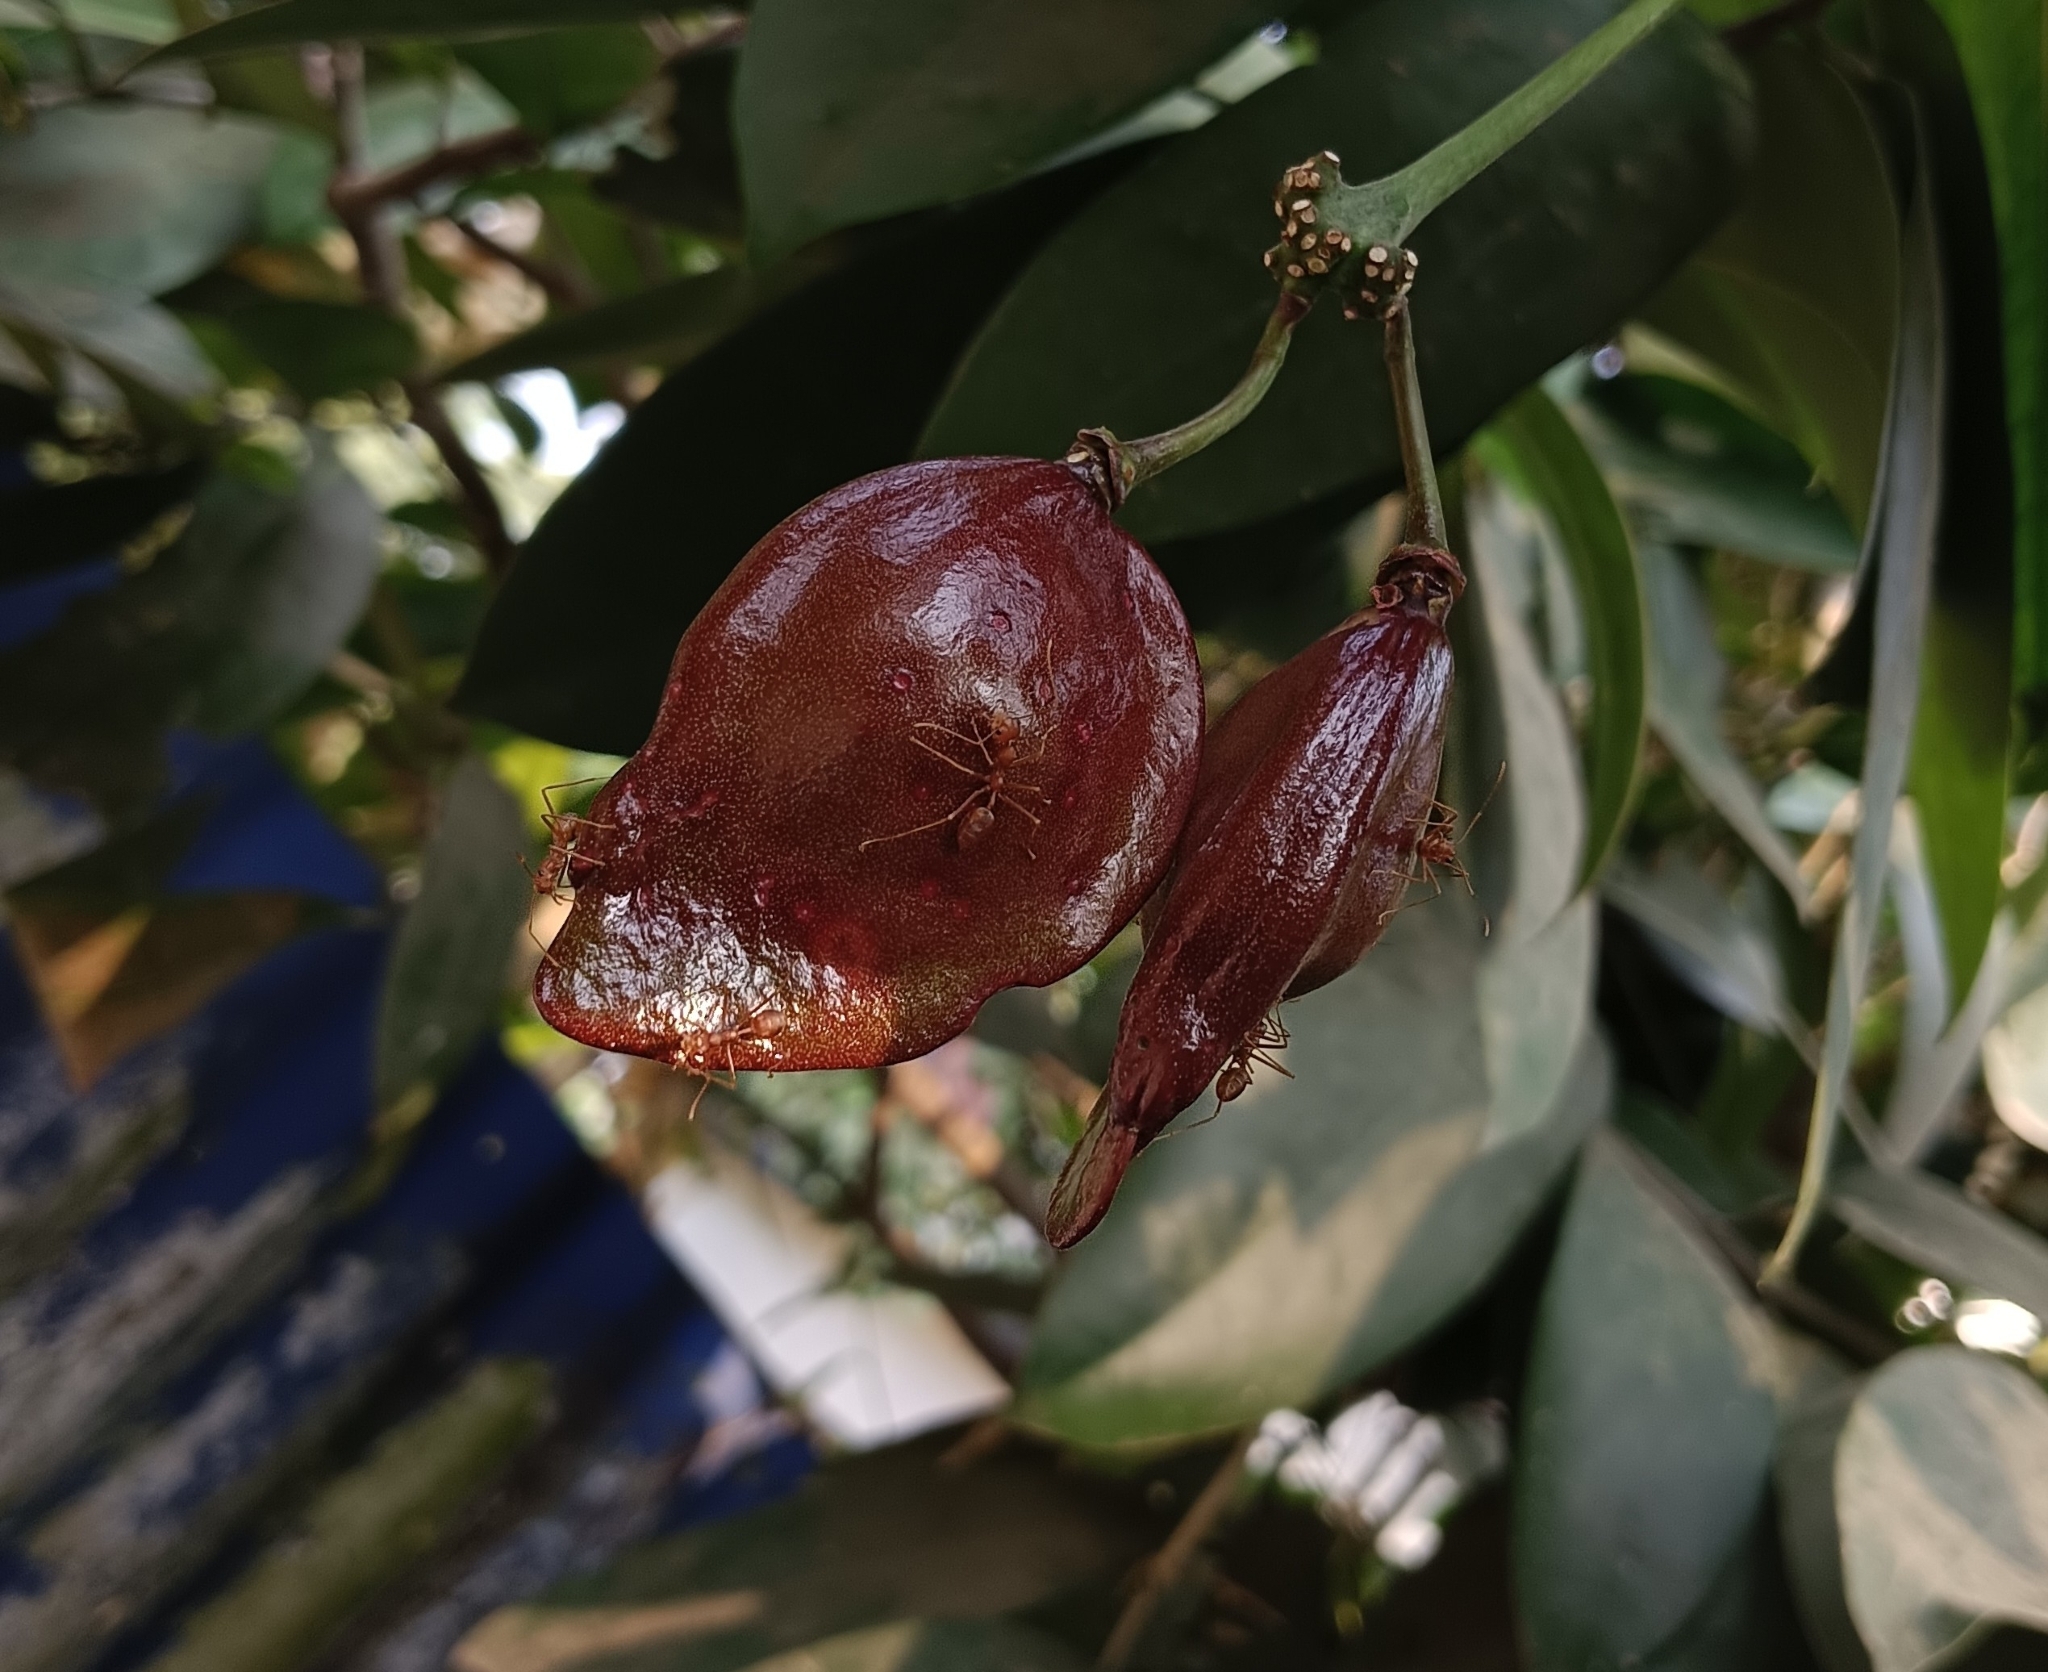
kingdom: Plantae
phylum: Tracheophyta
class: Magnoliopsida
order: Sapindales
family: Simaroubaceae
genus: Samadera
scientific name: Samadera indica
